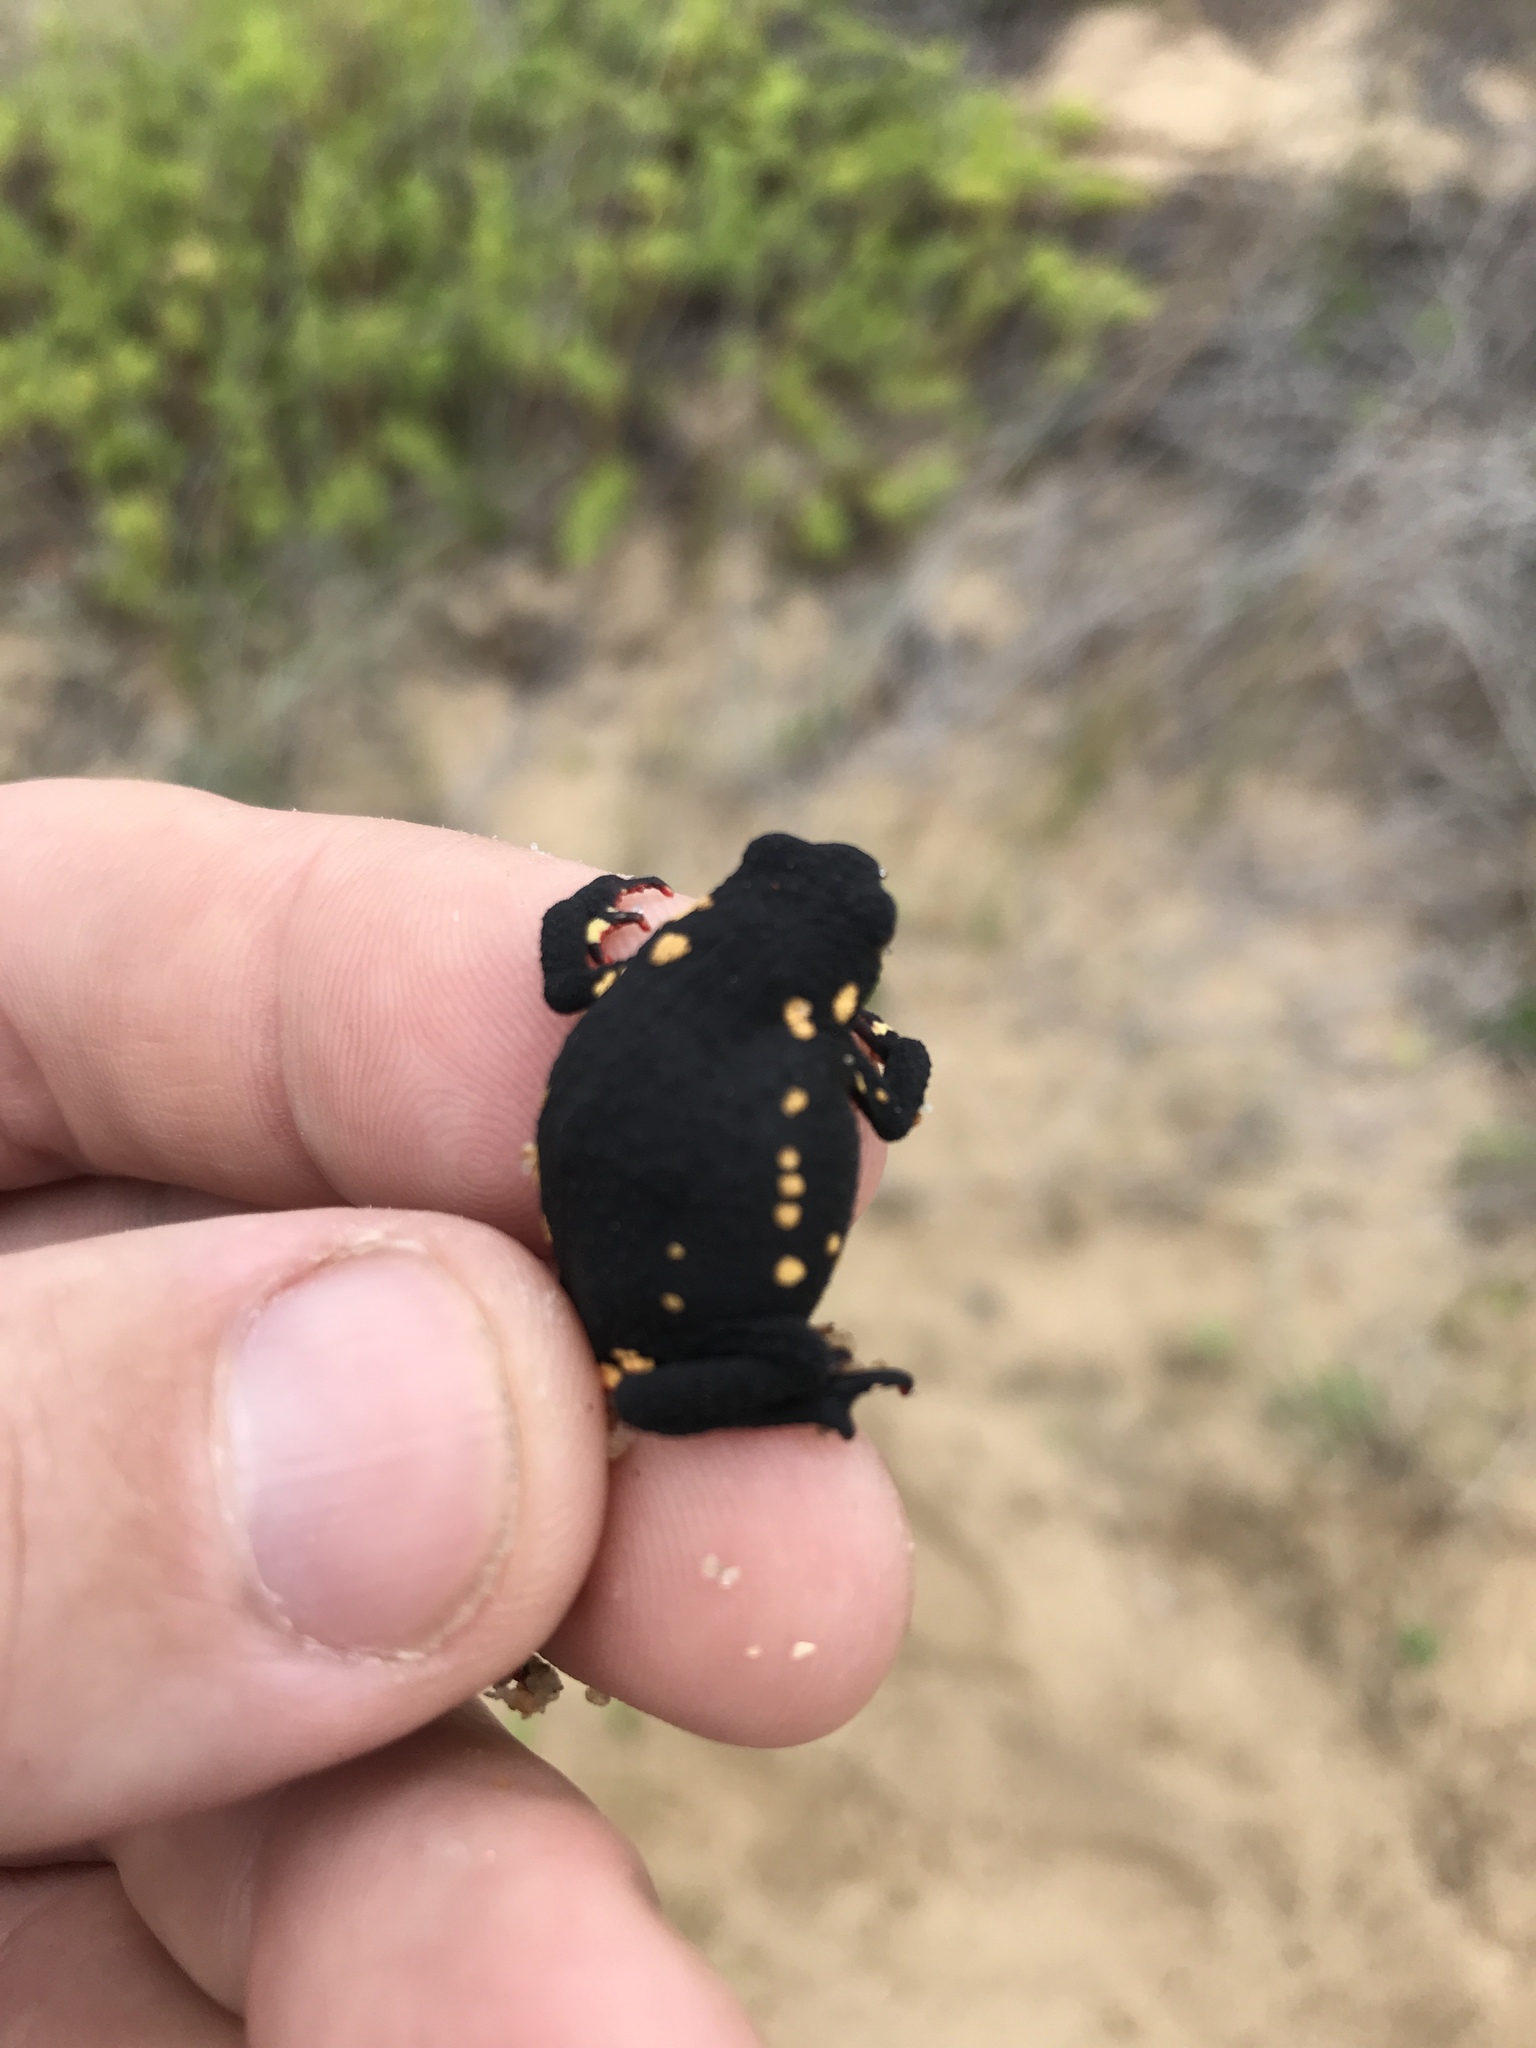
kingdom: Animalia
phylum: Chordata
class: Amphibia
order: Anura
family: Bufonidae
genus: Melanophryniscus
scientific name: Melanophryniscus montevidensis
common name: Montevideo redbelly toad
